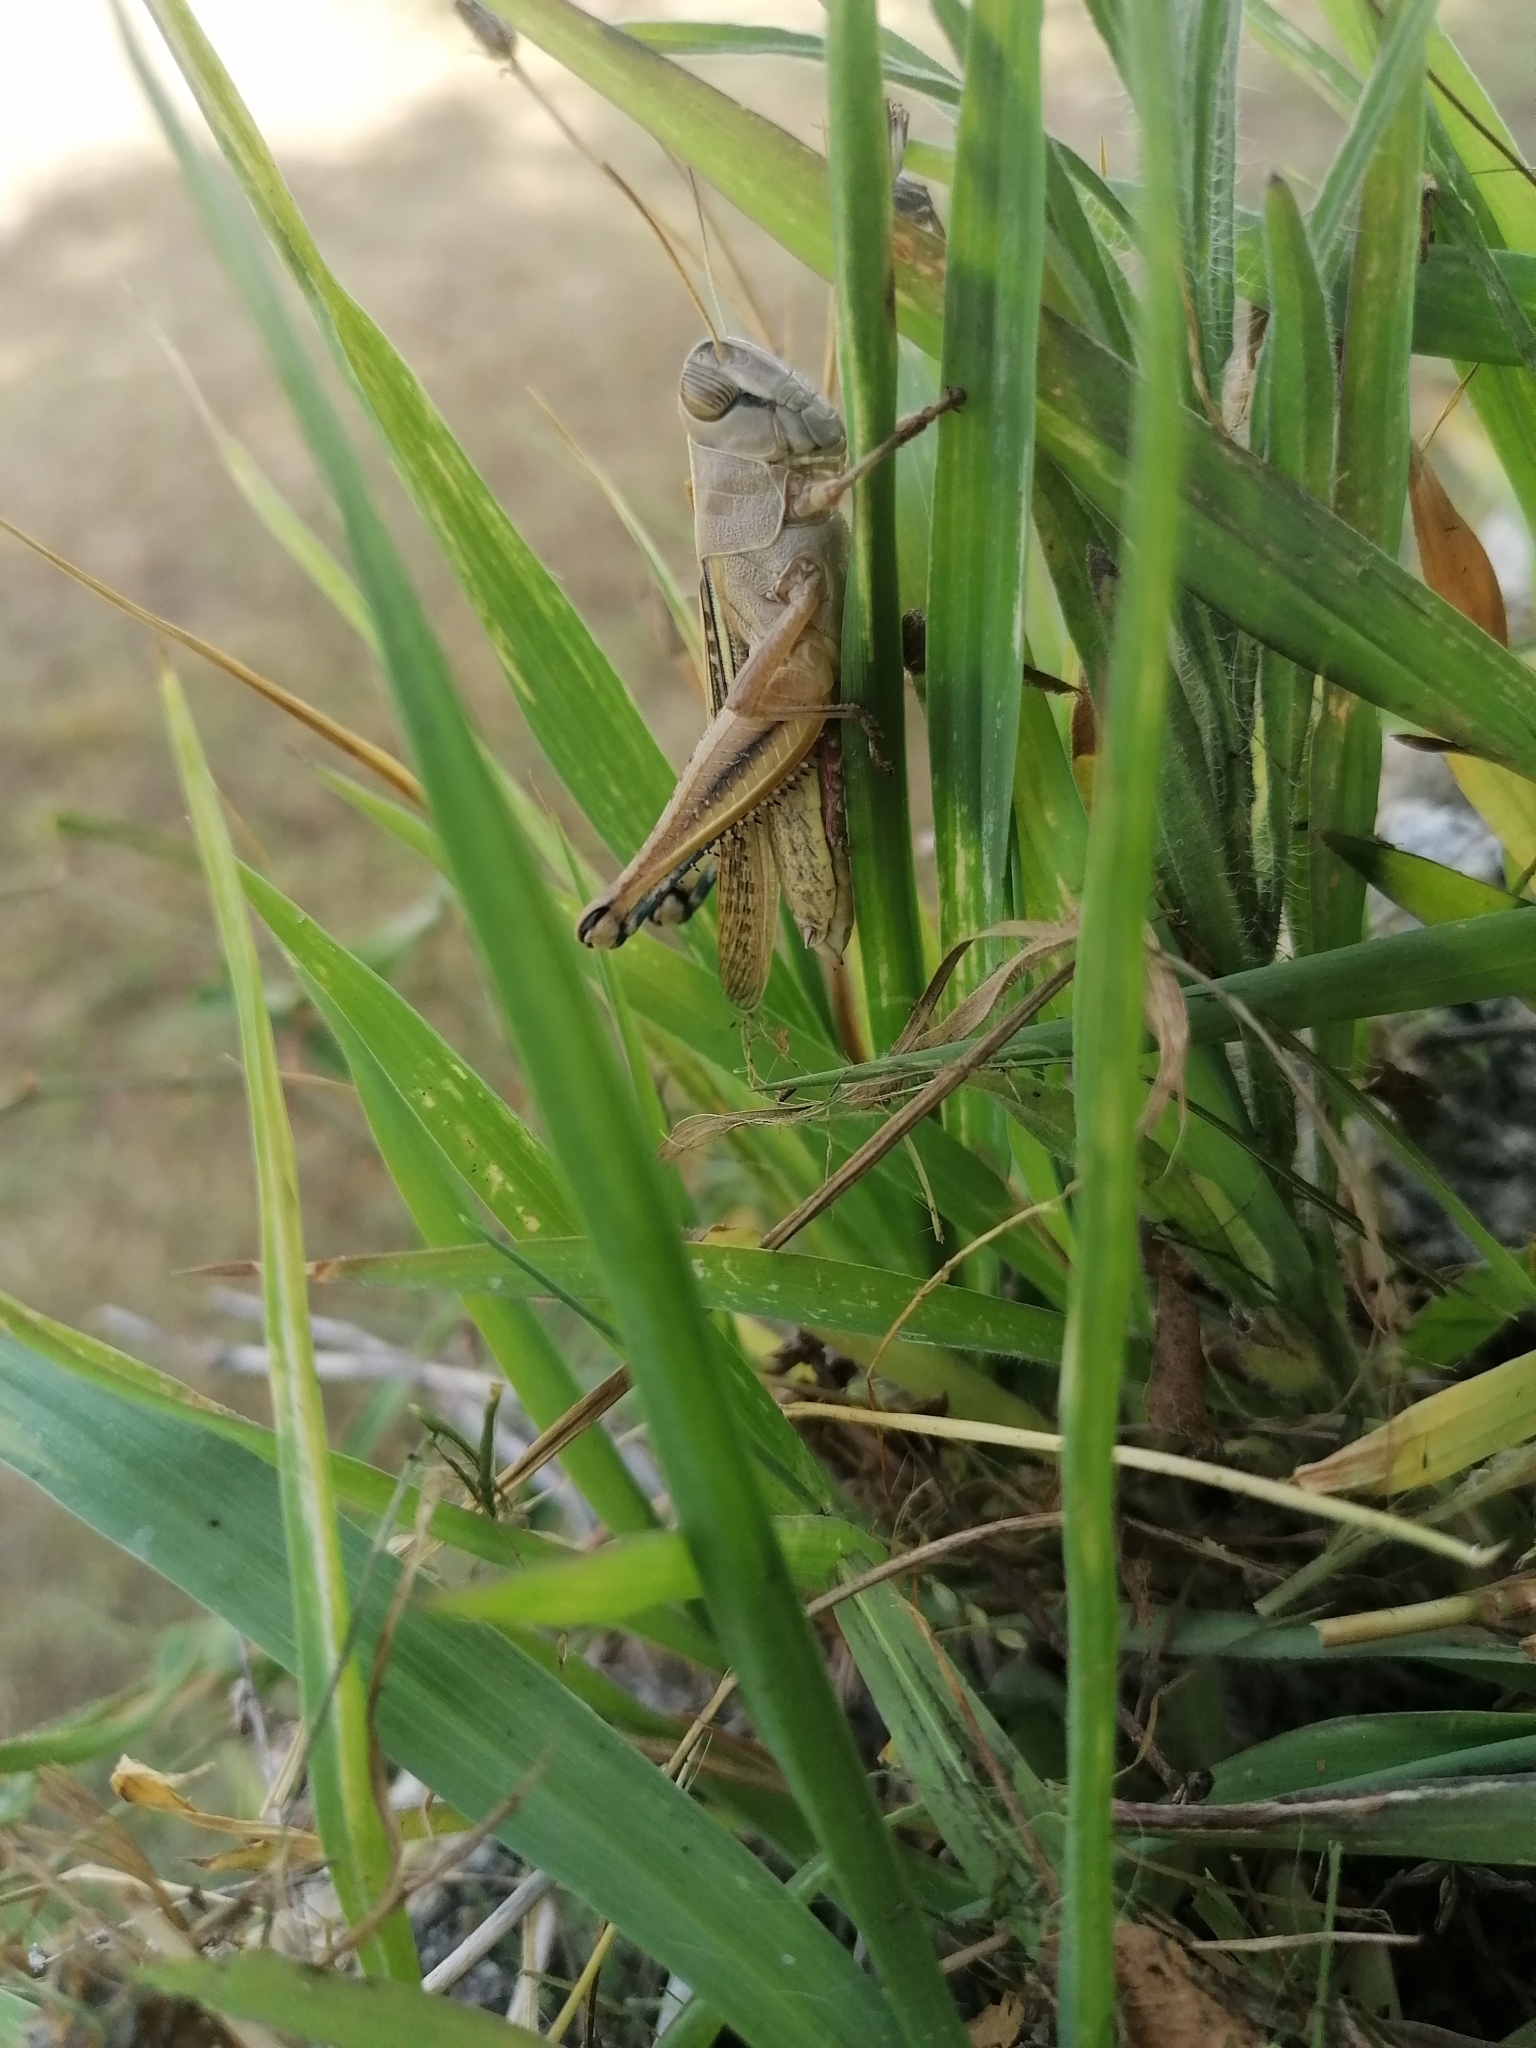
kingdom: Animalia
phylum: Arthropoda
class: Insecta
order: Orthoptera
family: Acrididae
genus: Eyprepocnemis
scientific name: Eyprepocnemis plorans
